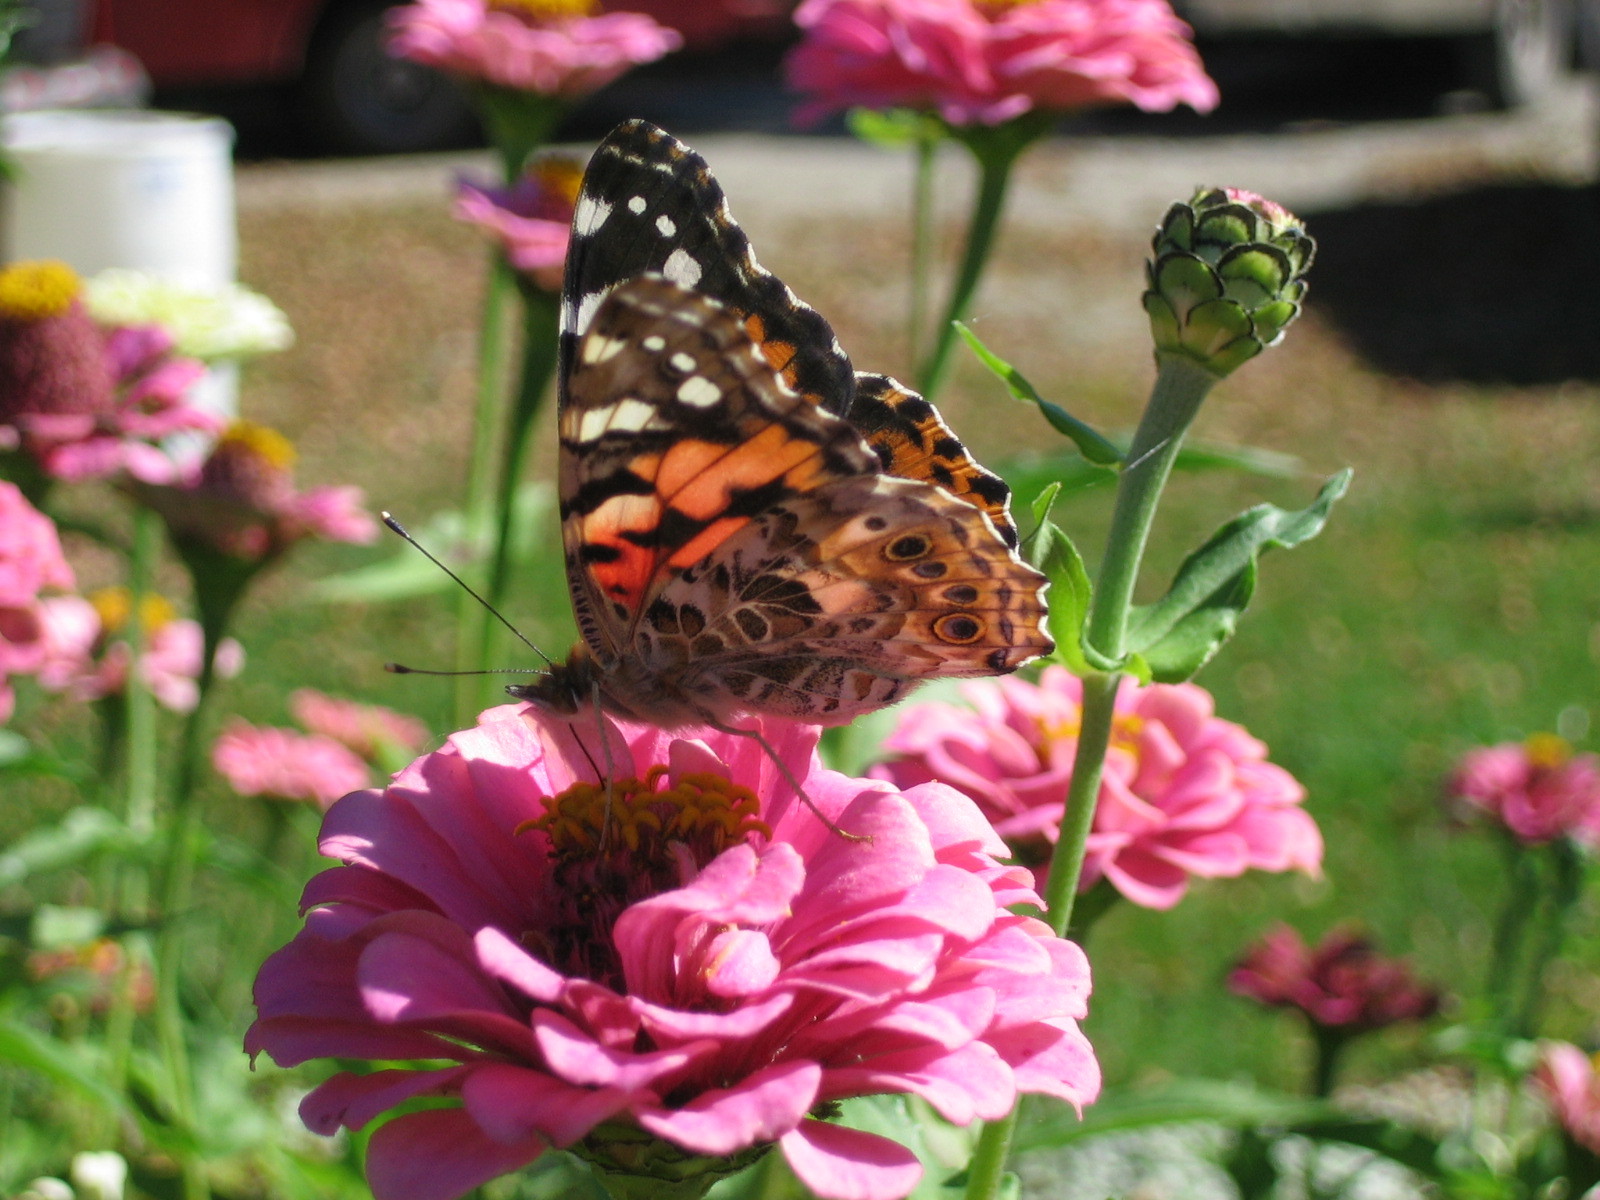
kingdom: Animalia
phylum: Arthropoda
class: Insecta
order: Lepidoptera
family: Nymphalidae
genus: Vanessa
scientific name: Vanessa cardui
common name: Painted lady
